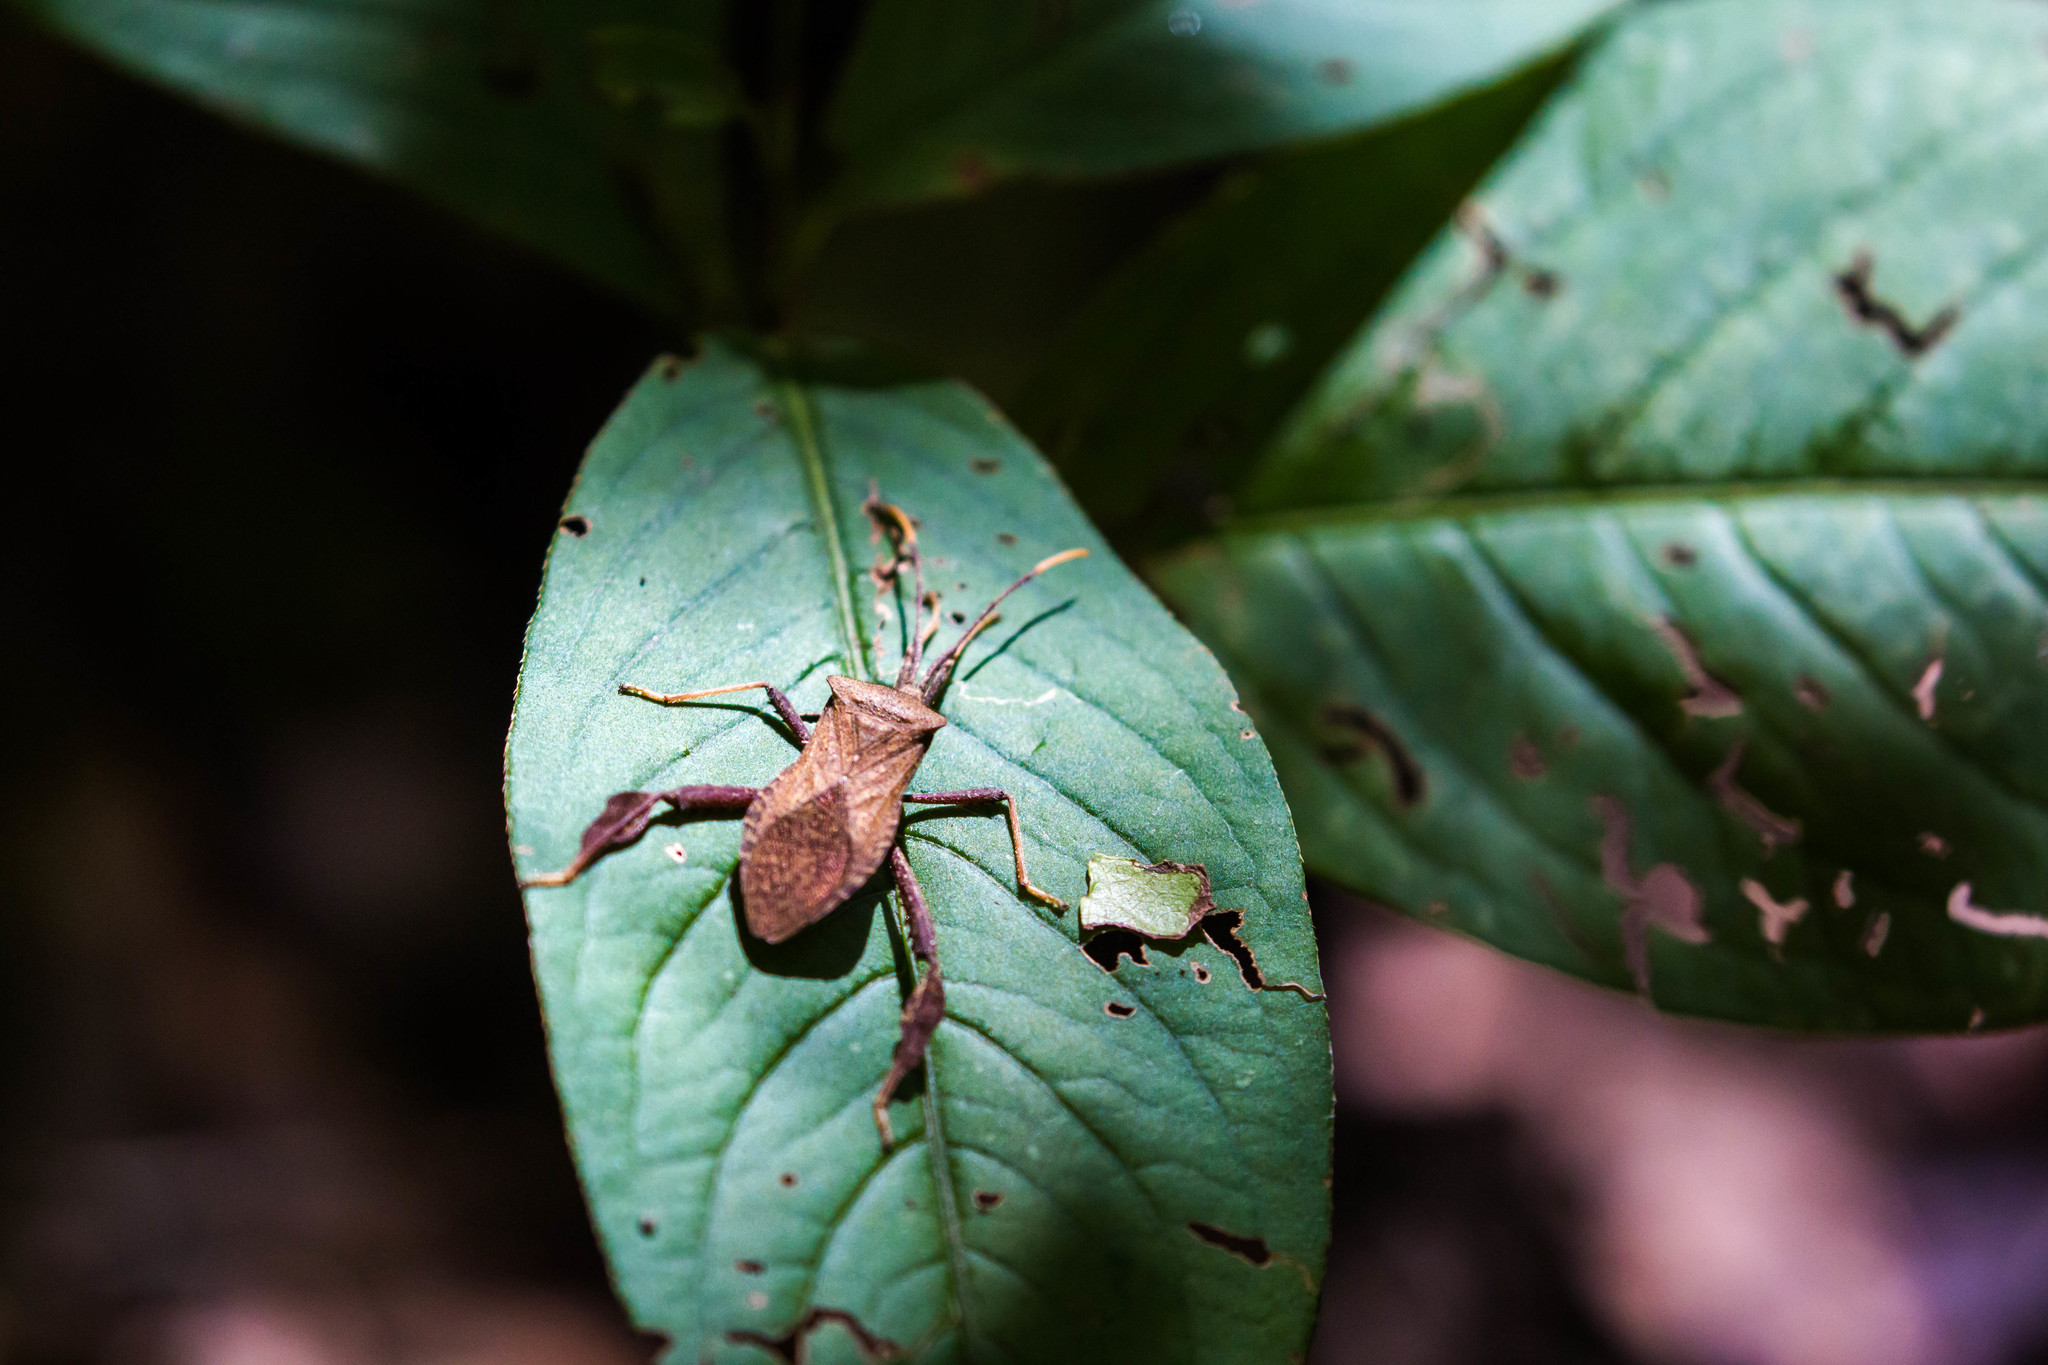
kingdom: Animalia
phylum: Arthropoda
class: Insecta
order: Hemiptera
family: Coreidae
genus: Acanthocephala
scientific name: Acanthocephala terminalis
